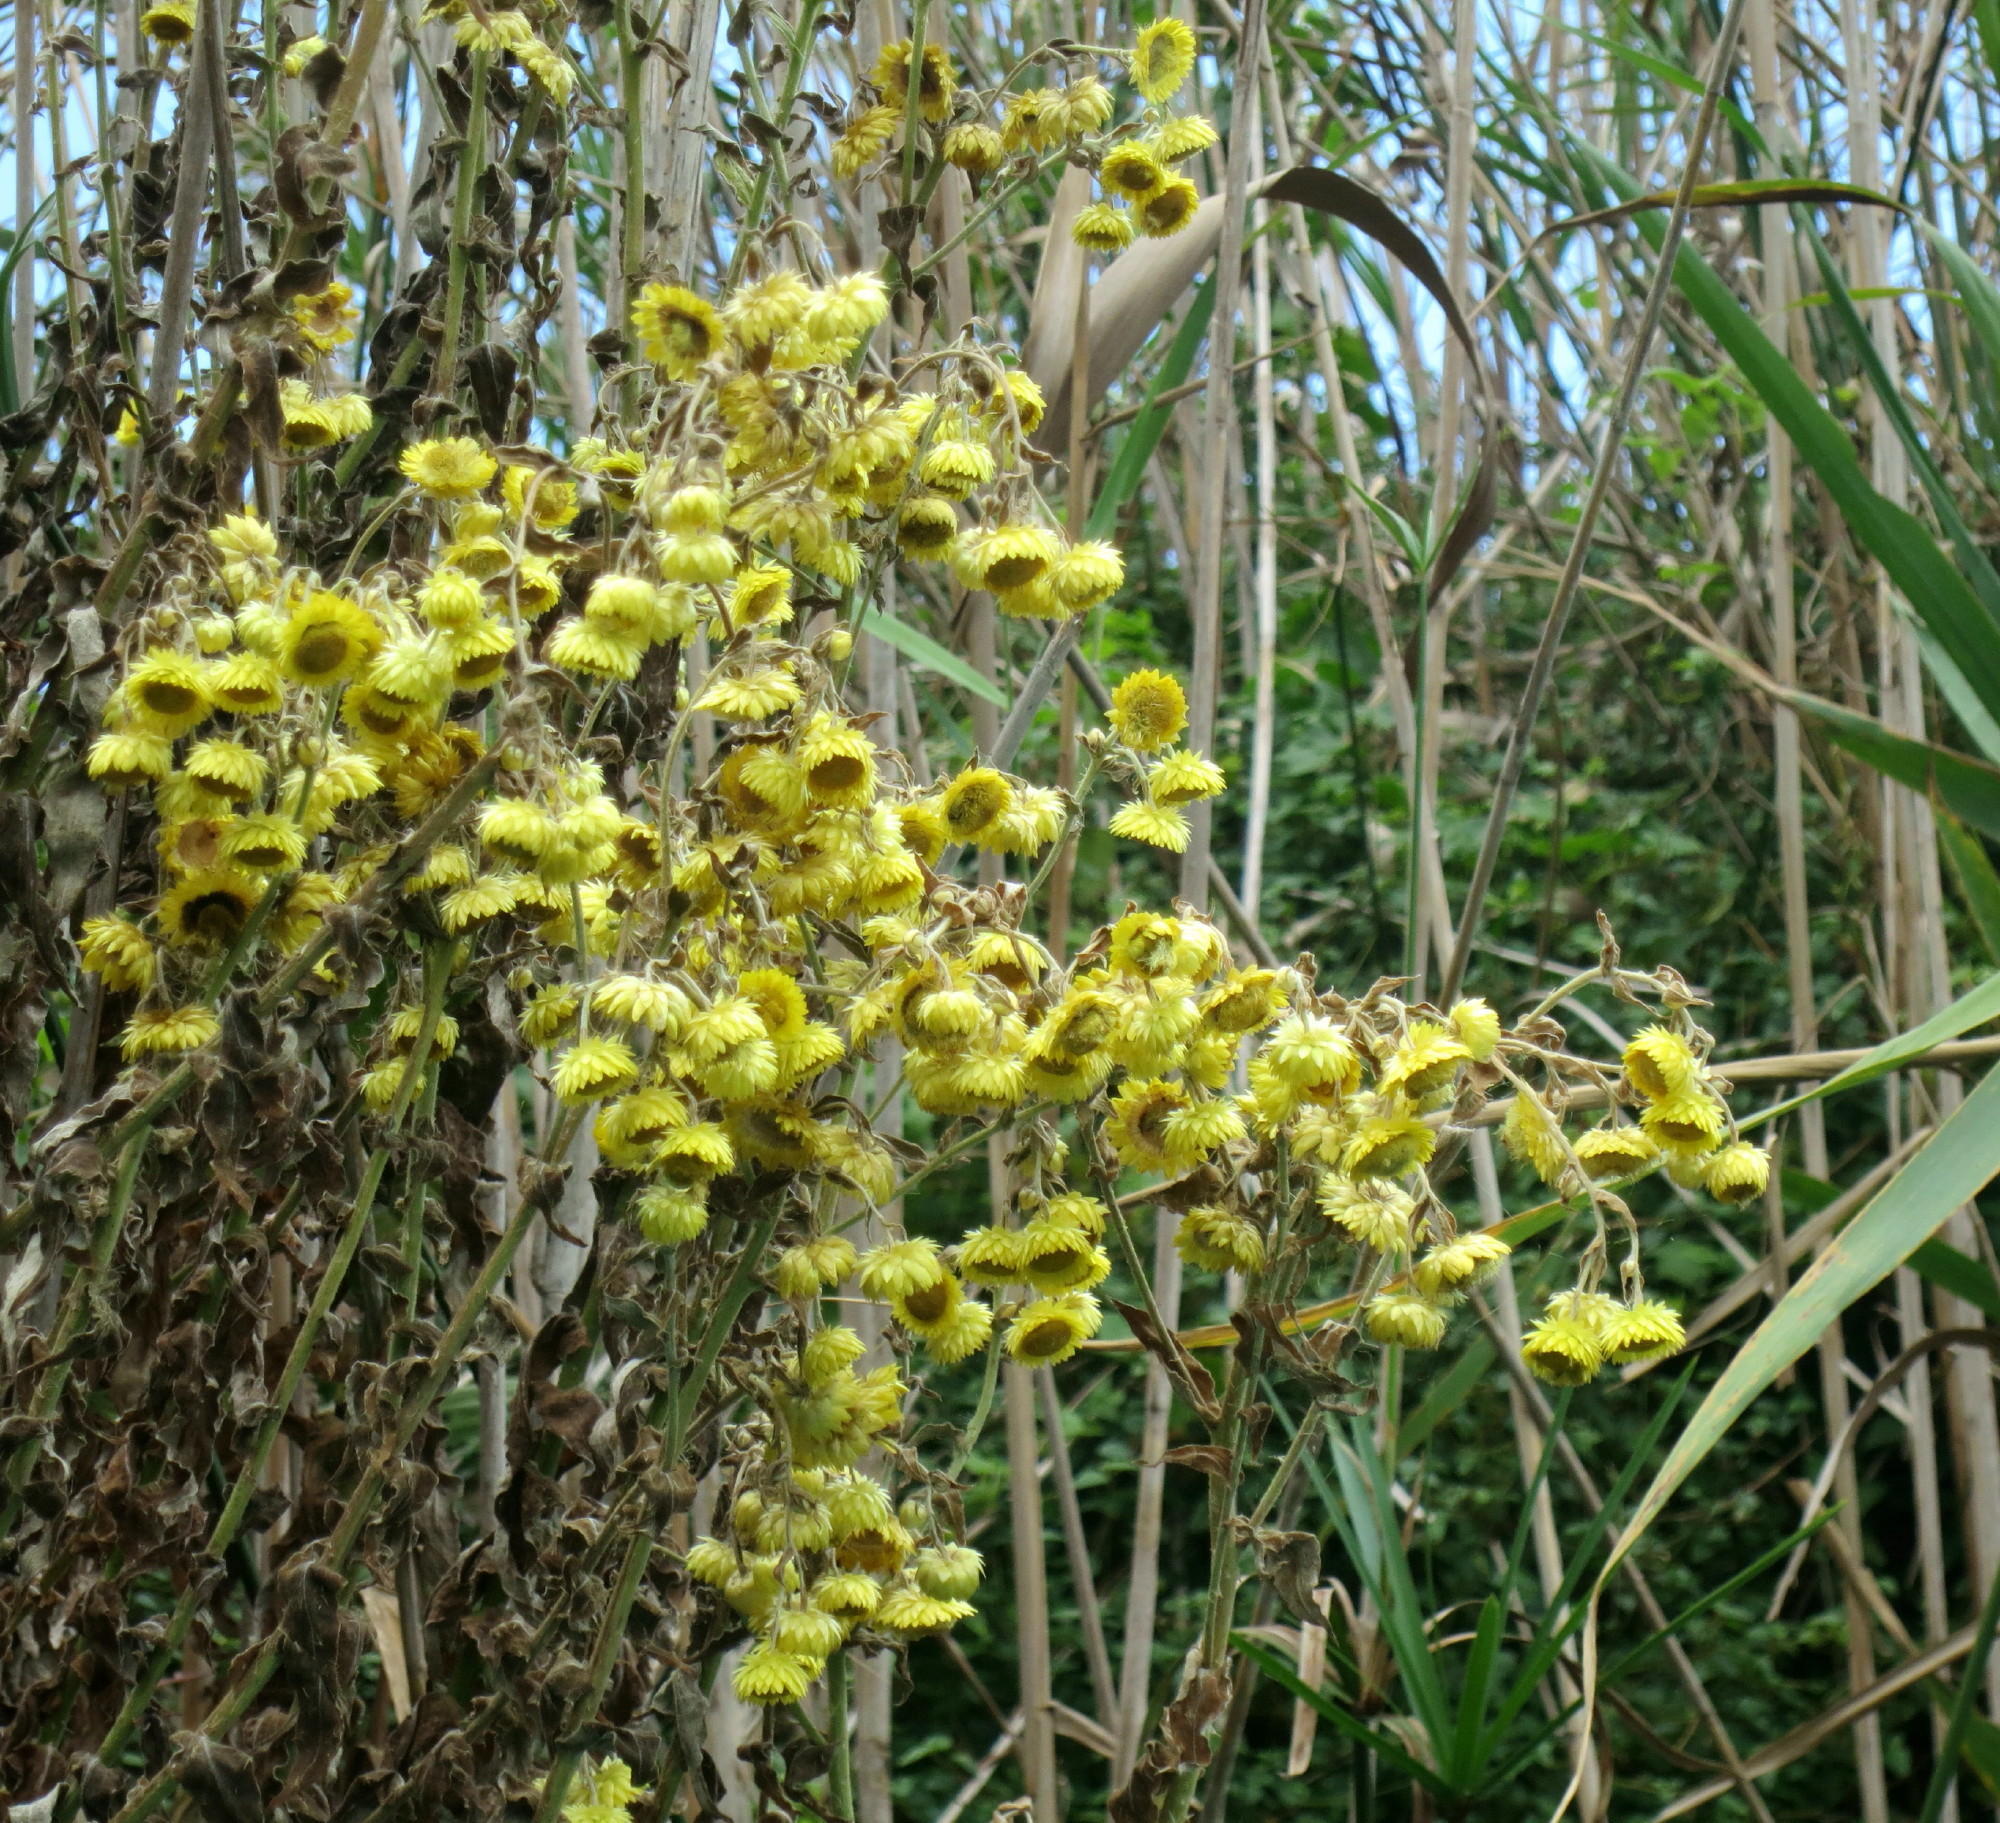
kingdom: Plantae
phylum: Tracheophyta
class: Magnoliopsida
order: Asterales
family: Asteraceae
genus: Helichrysum
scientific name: Helichrysum foetidum
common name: Stinking everlasting
